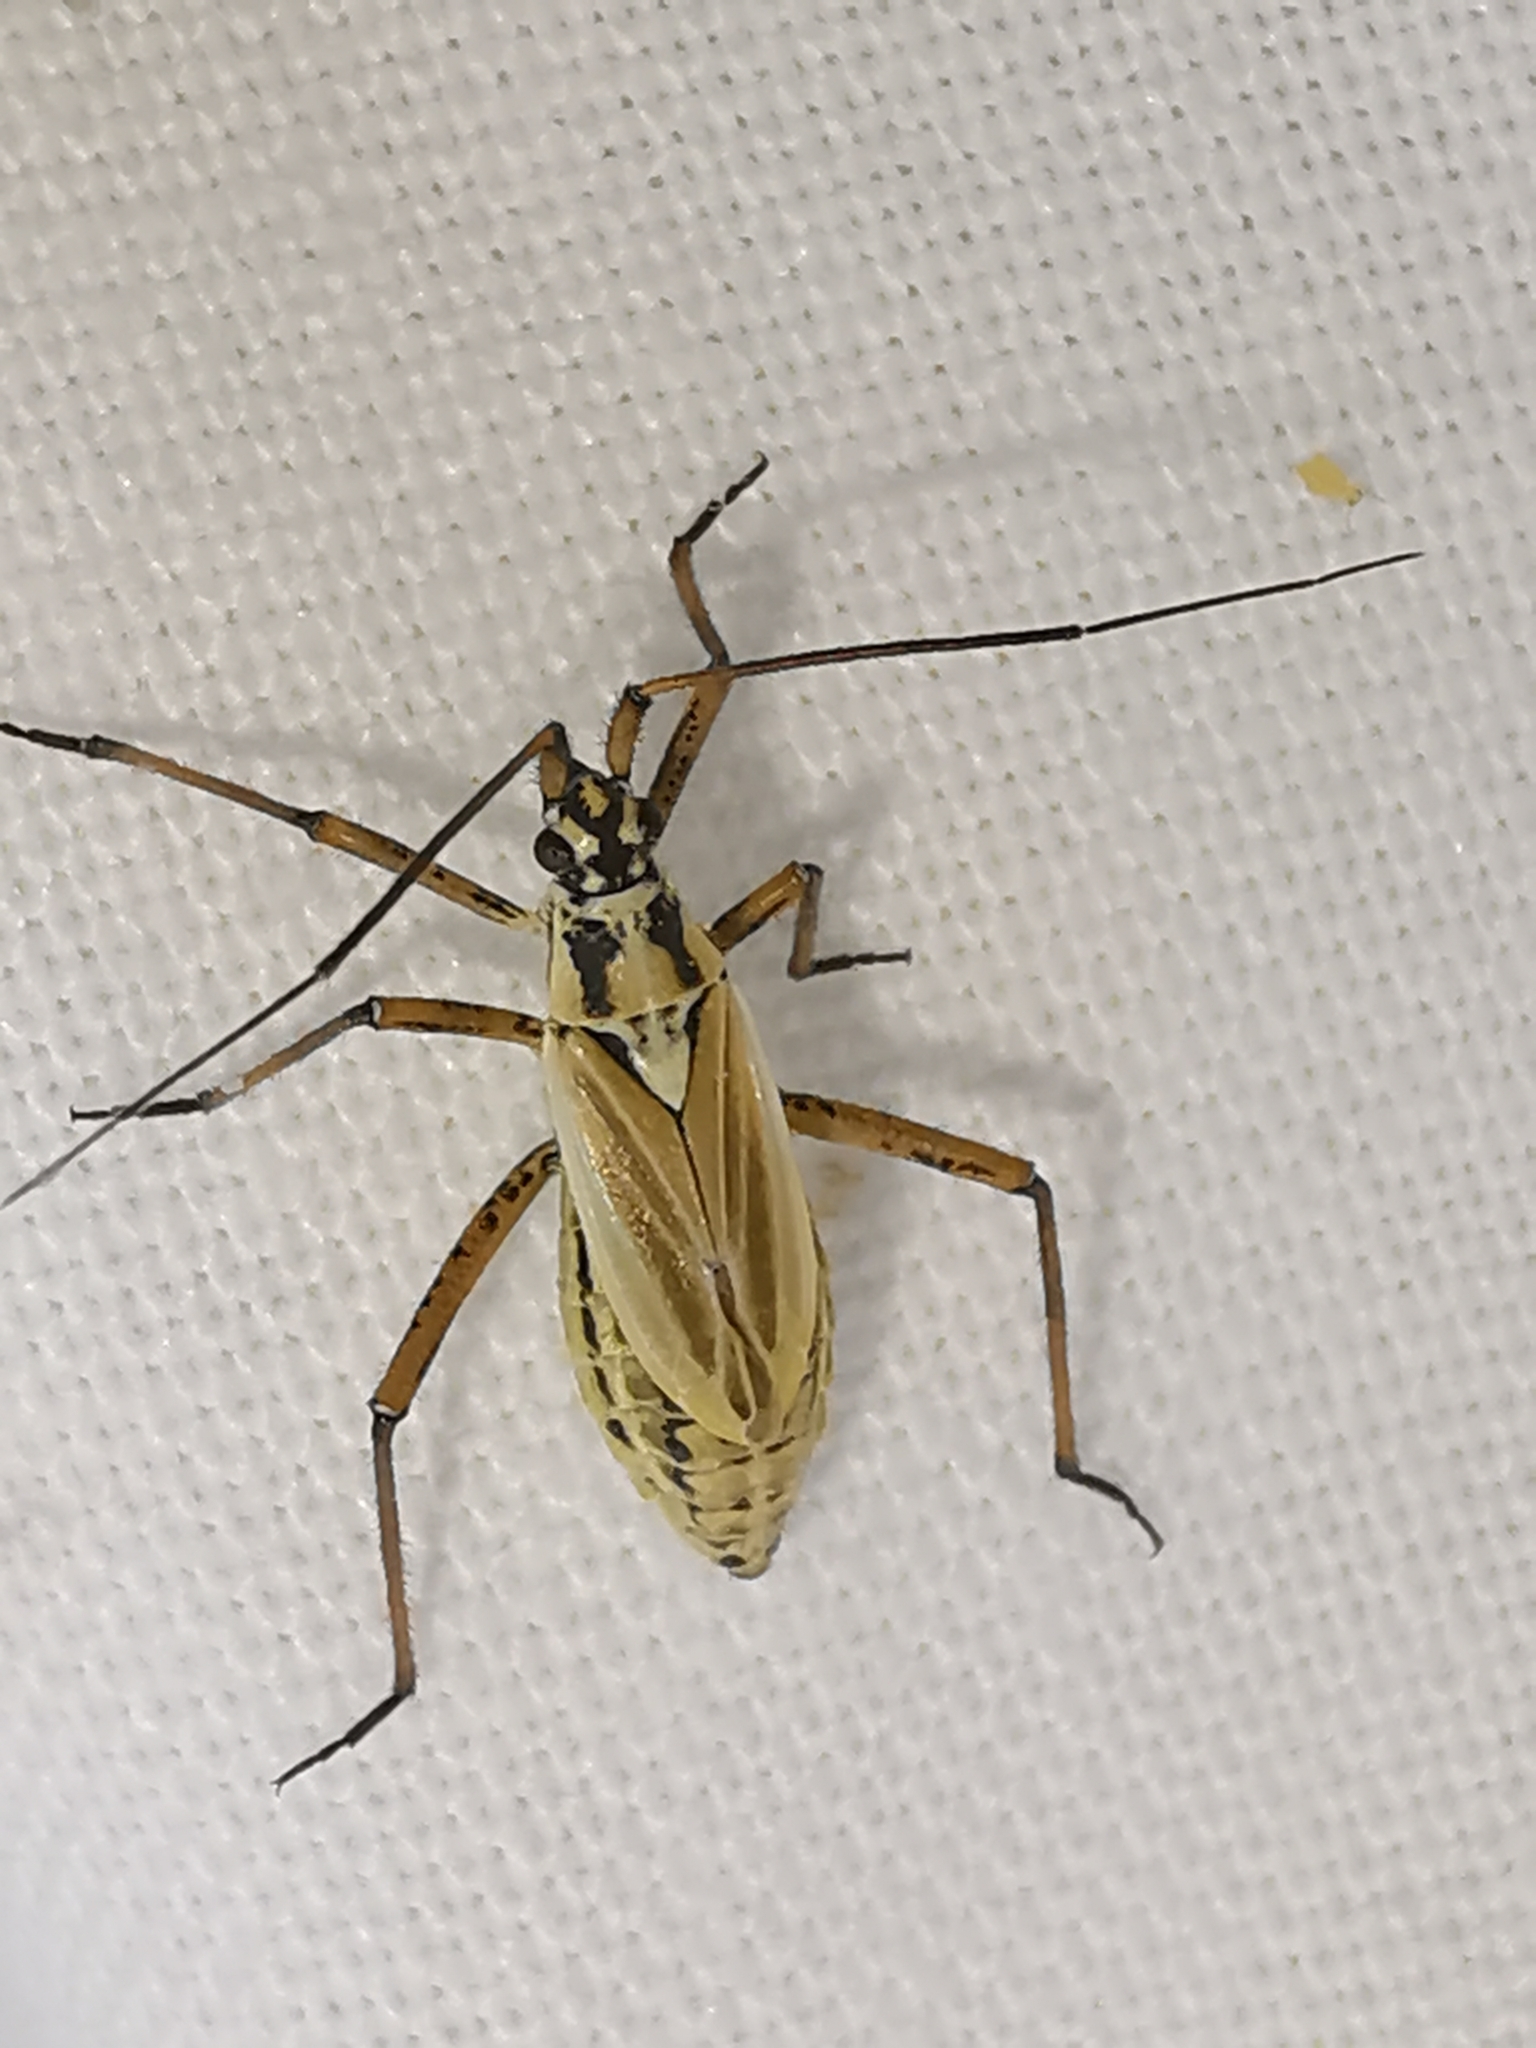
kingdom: Animalia
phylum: Arthropoda
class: Insecta
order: Hemiptera
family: Miridae
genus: Leptopterna
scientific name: Leptopterna dolabrata
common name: Meadow plant bug
